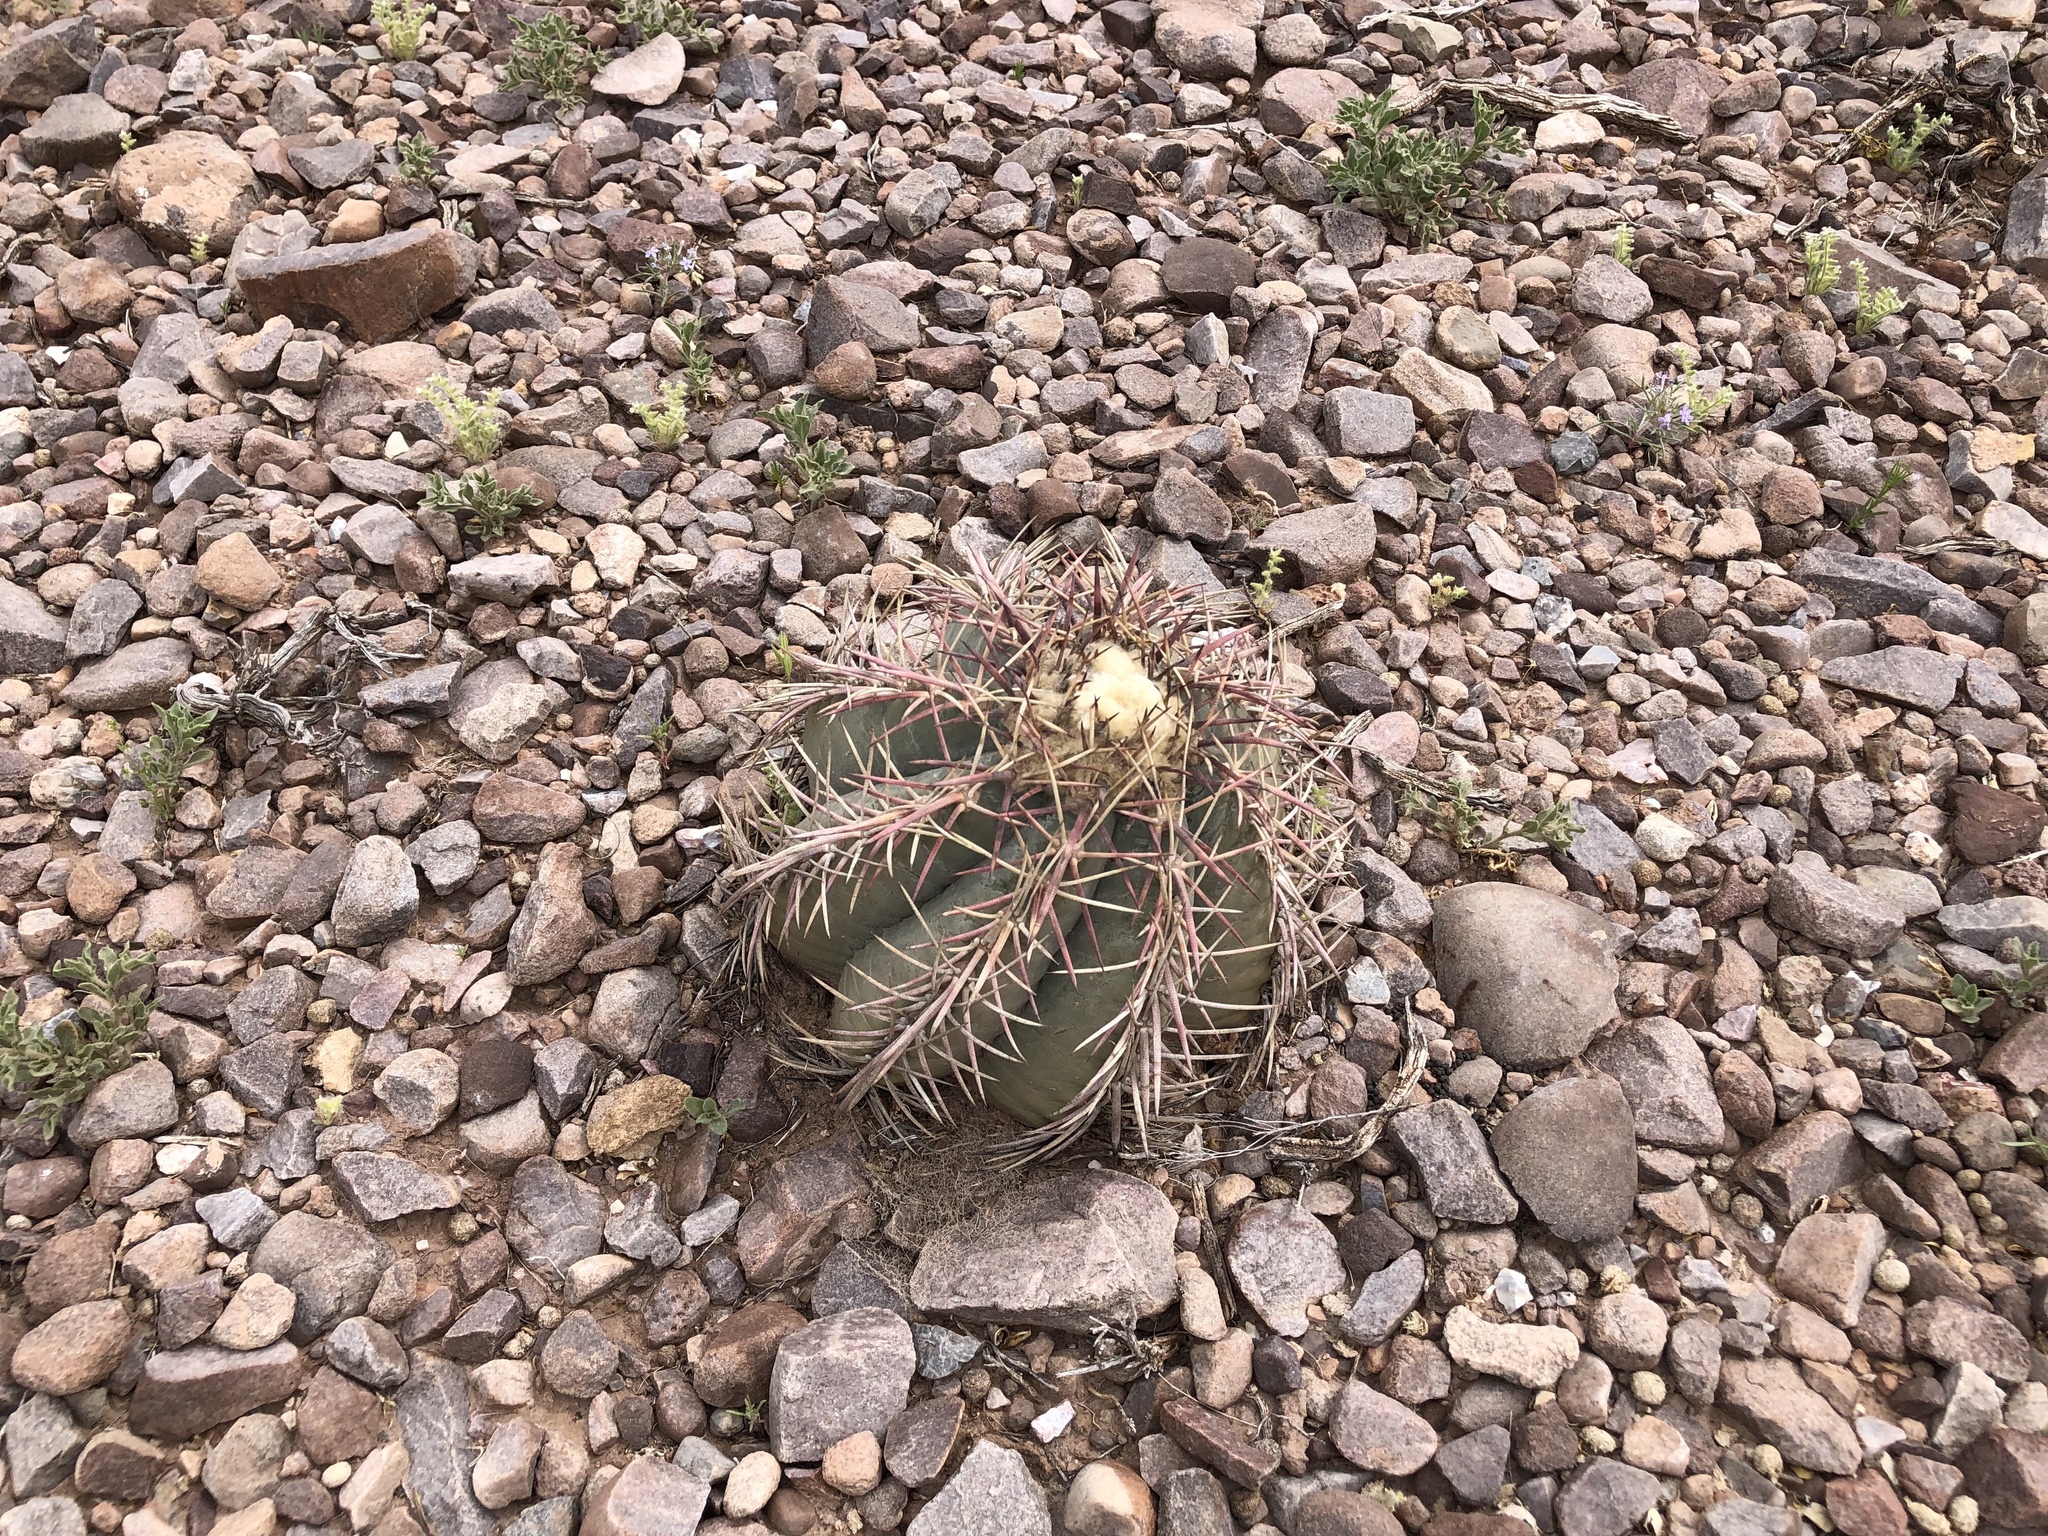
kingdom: Plantae
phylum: Tracheophyta
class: Magnoliopsida
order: Caryophyllales
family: Cactaceae
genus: Echinocactus
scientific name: Echinocactus horizonthalonius
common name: Devilshead
